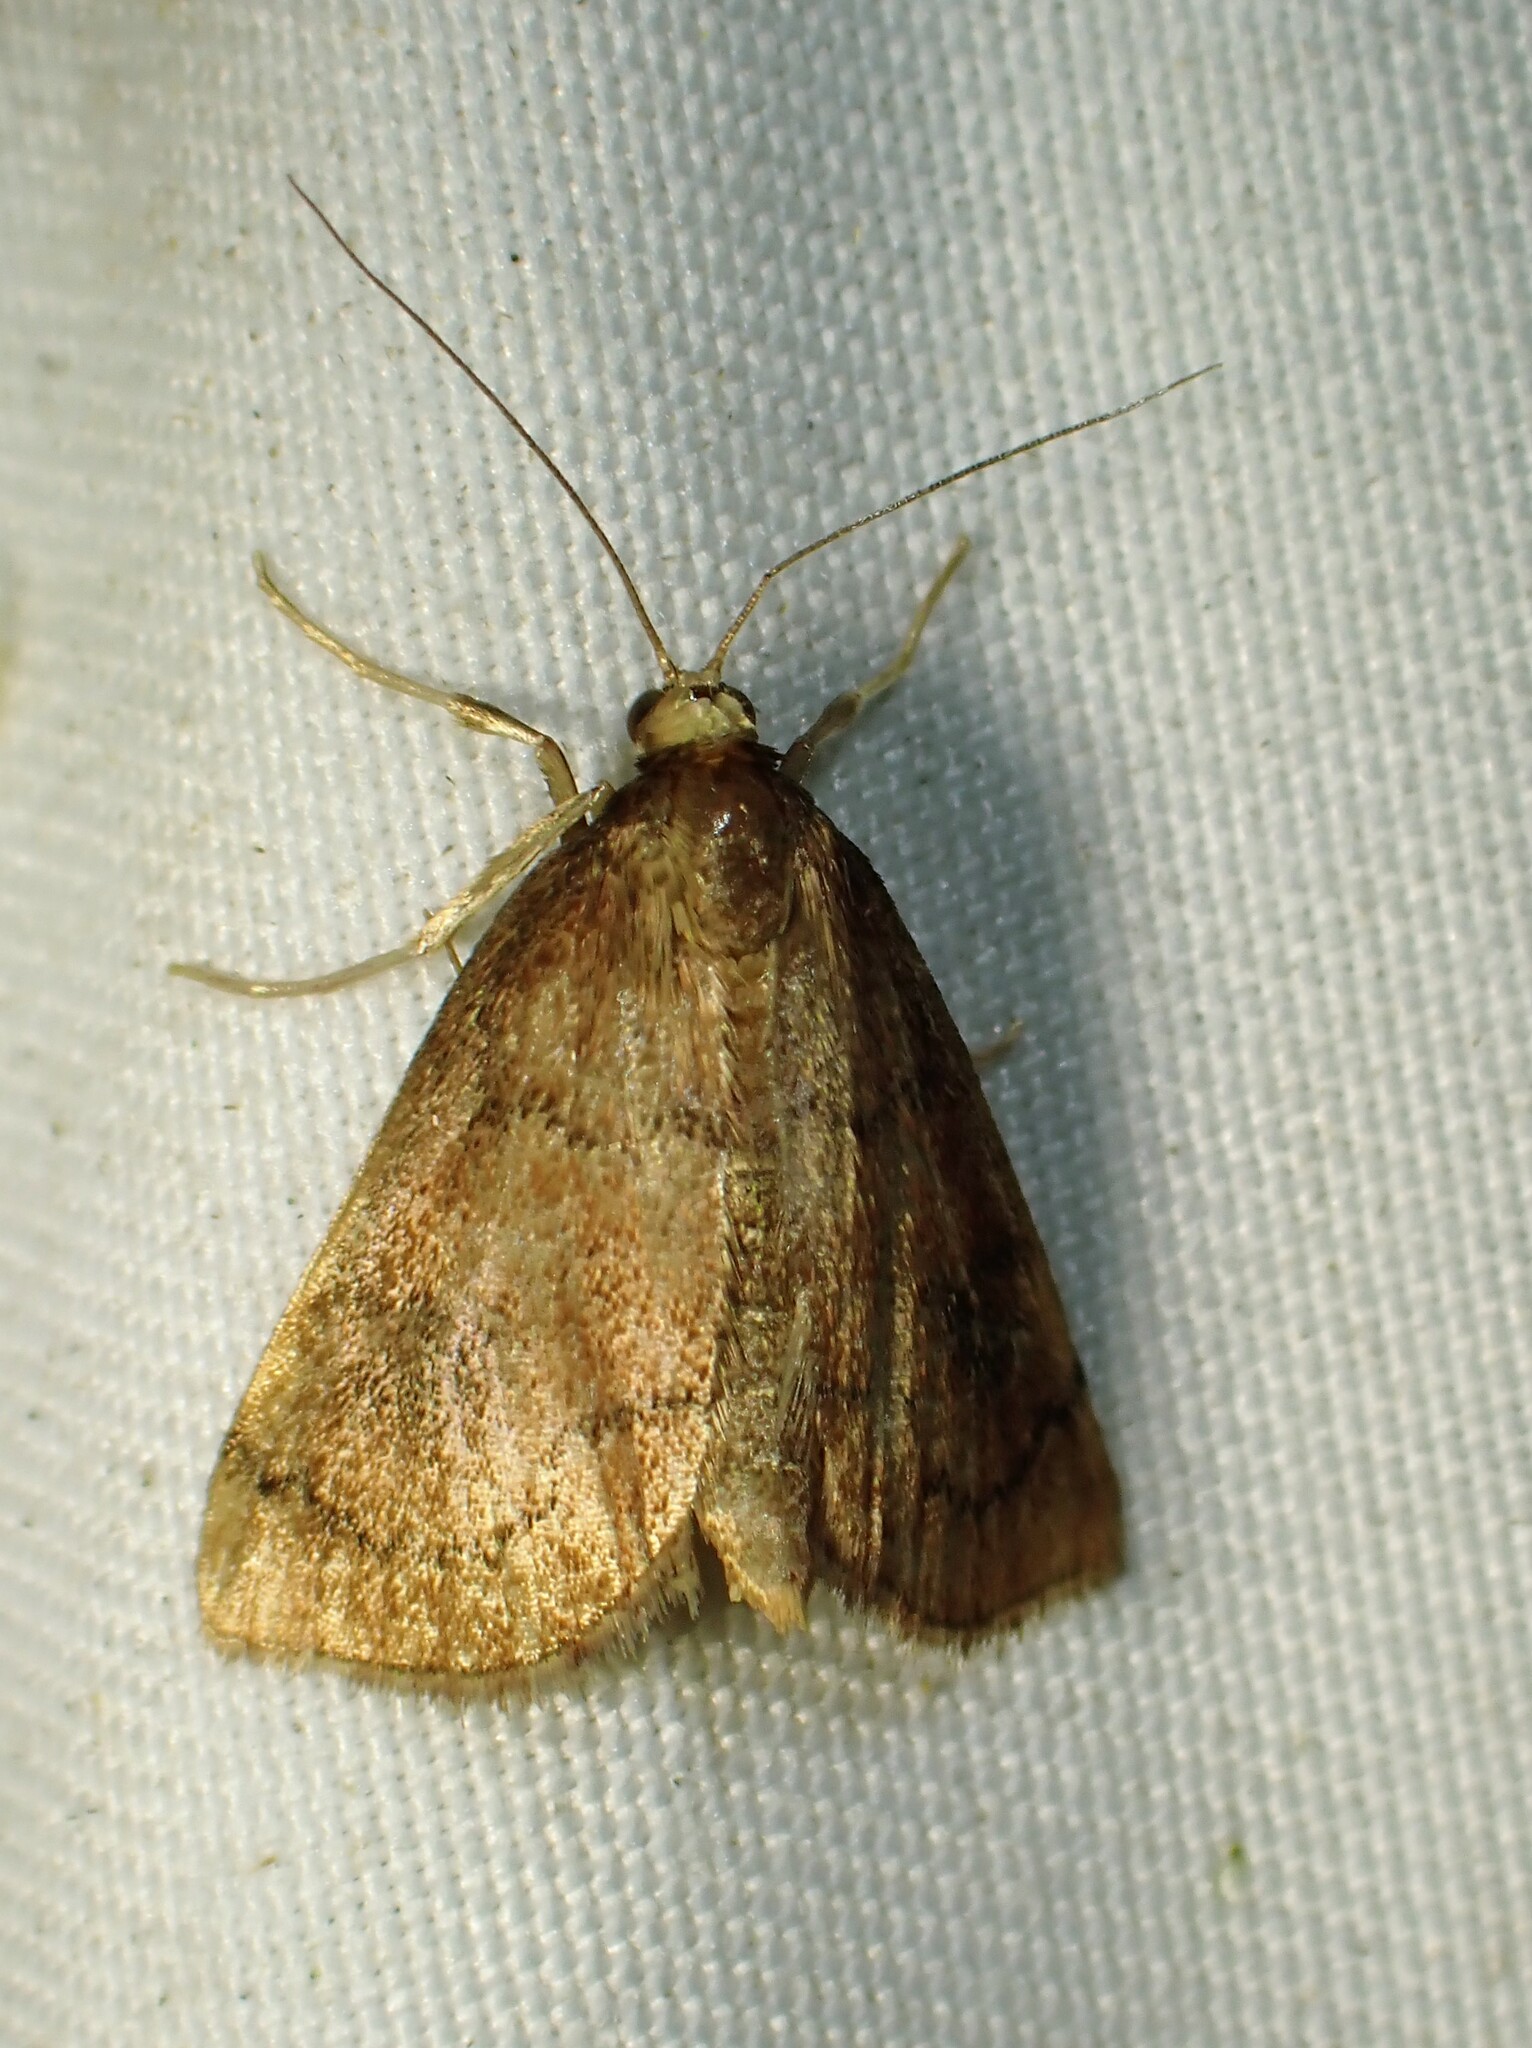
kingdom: Animalia
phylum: Arthropoda
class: Insecta
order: Lepidoptera
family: Crambidae
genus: Fumibotys
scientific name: Fumibotys fumalis
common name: Mint root borer moth
